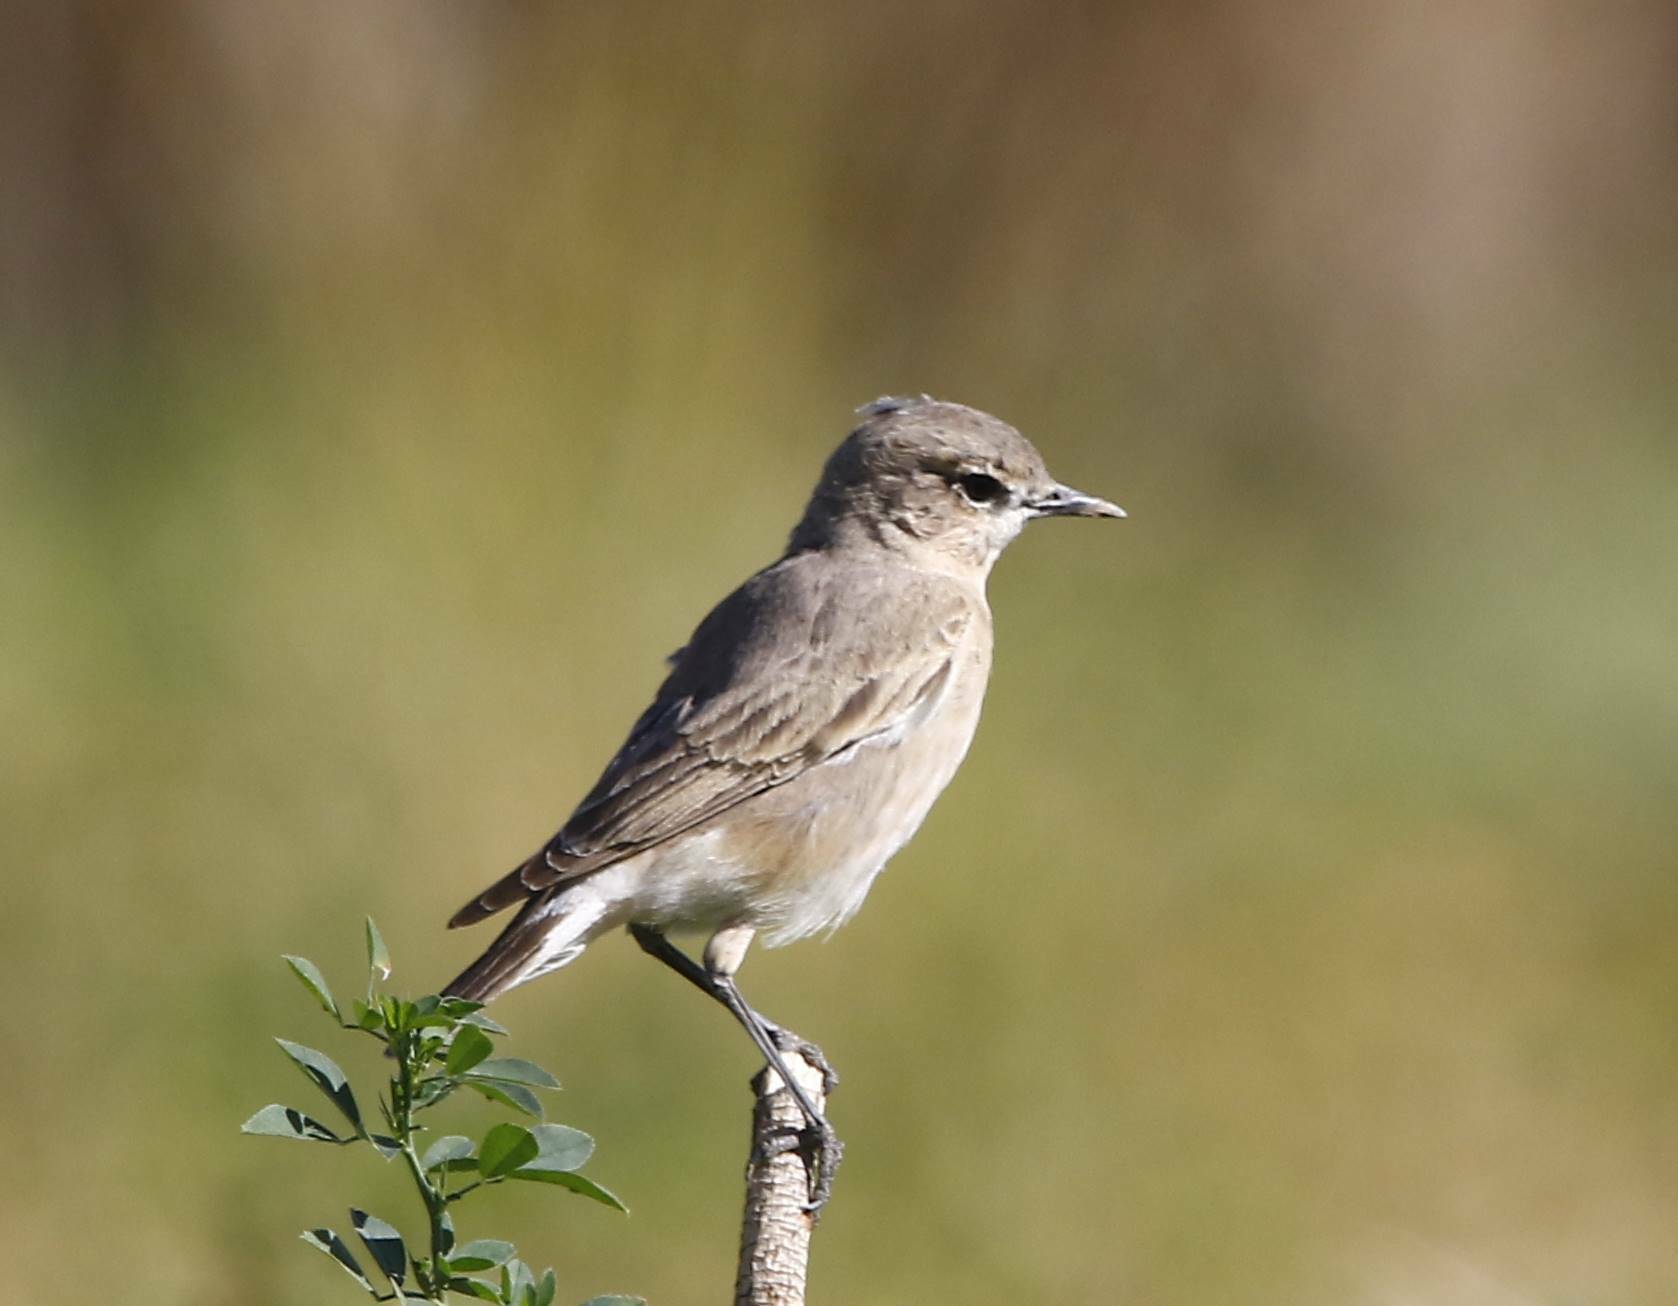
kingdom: Animalia
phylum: Chordata
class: Aves
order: Passeriformes
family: Muscicapidae
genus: Oenanthe
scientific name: Oenanthe isabellina
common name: Isabelline wheatear
